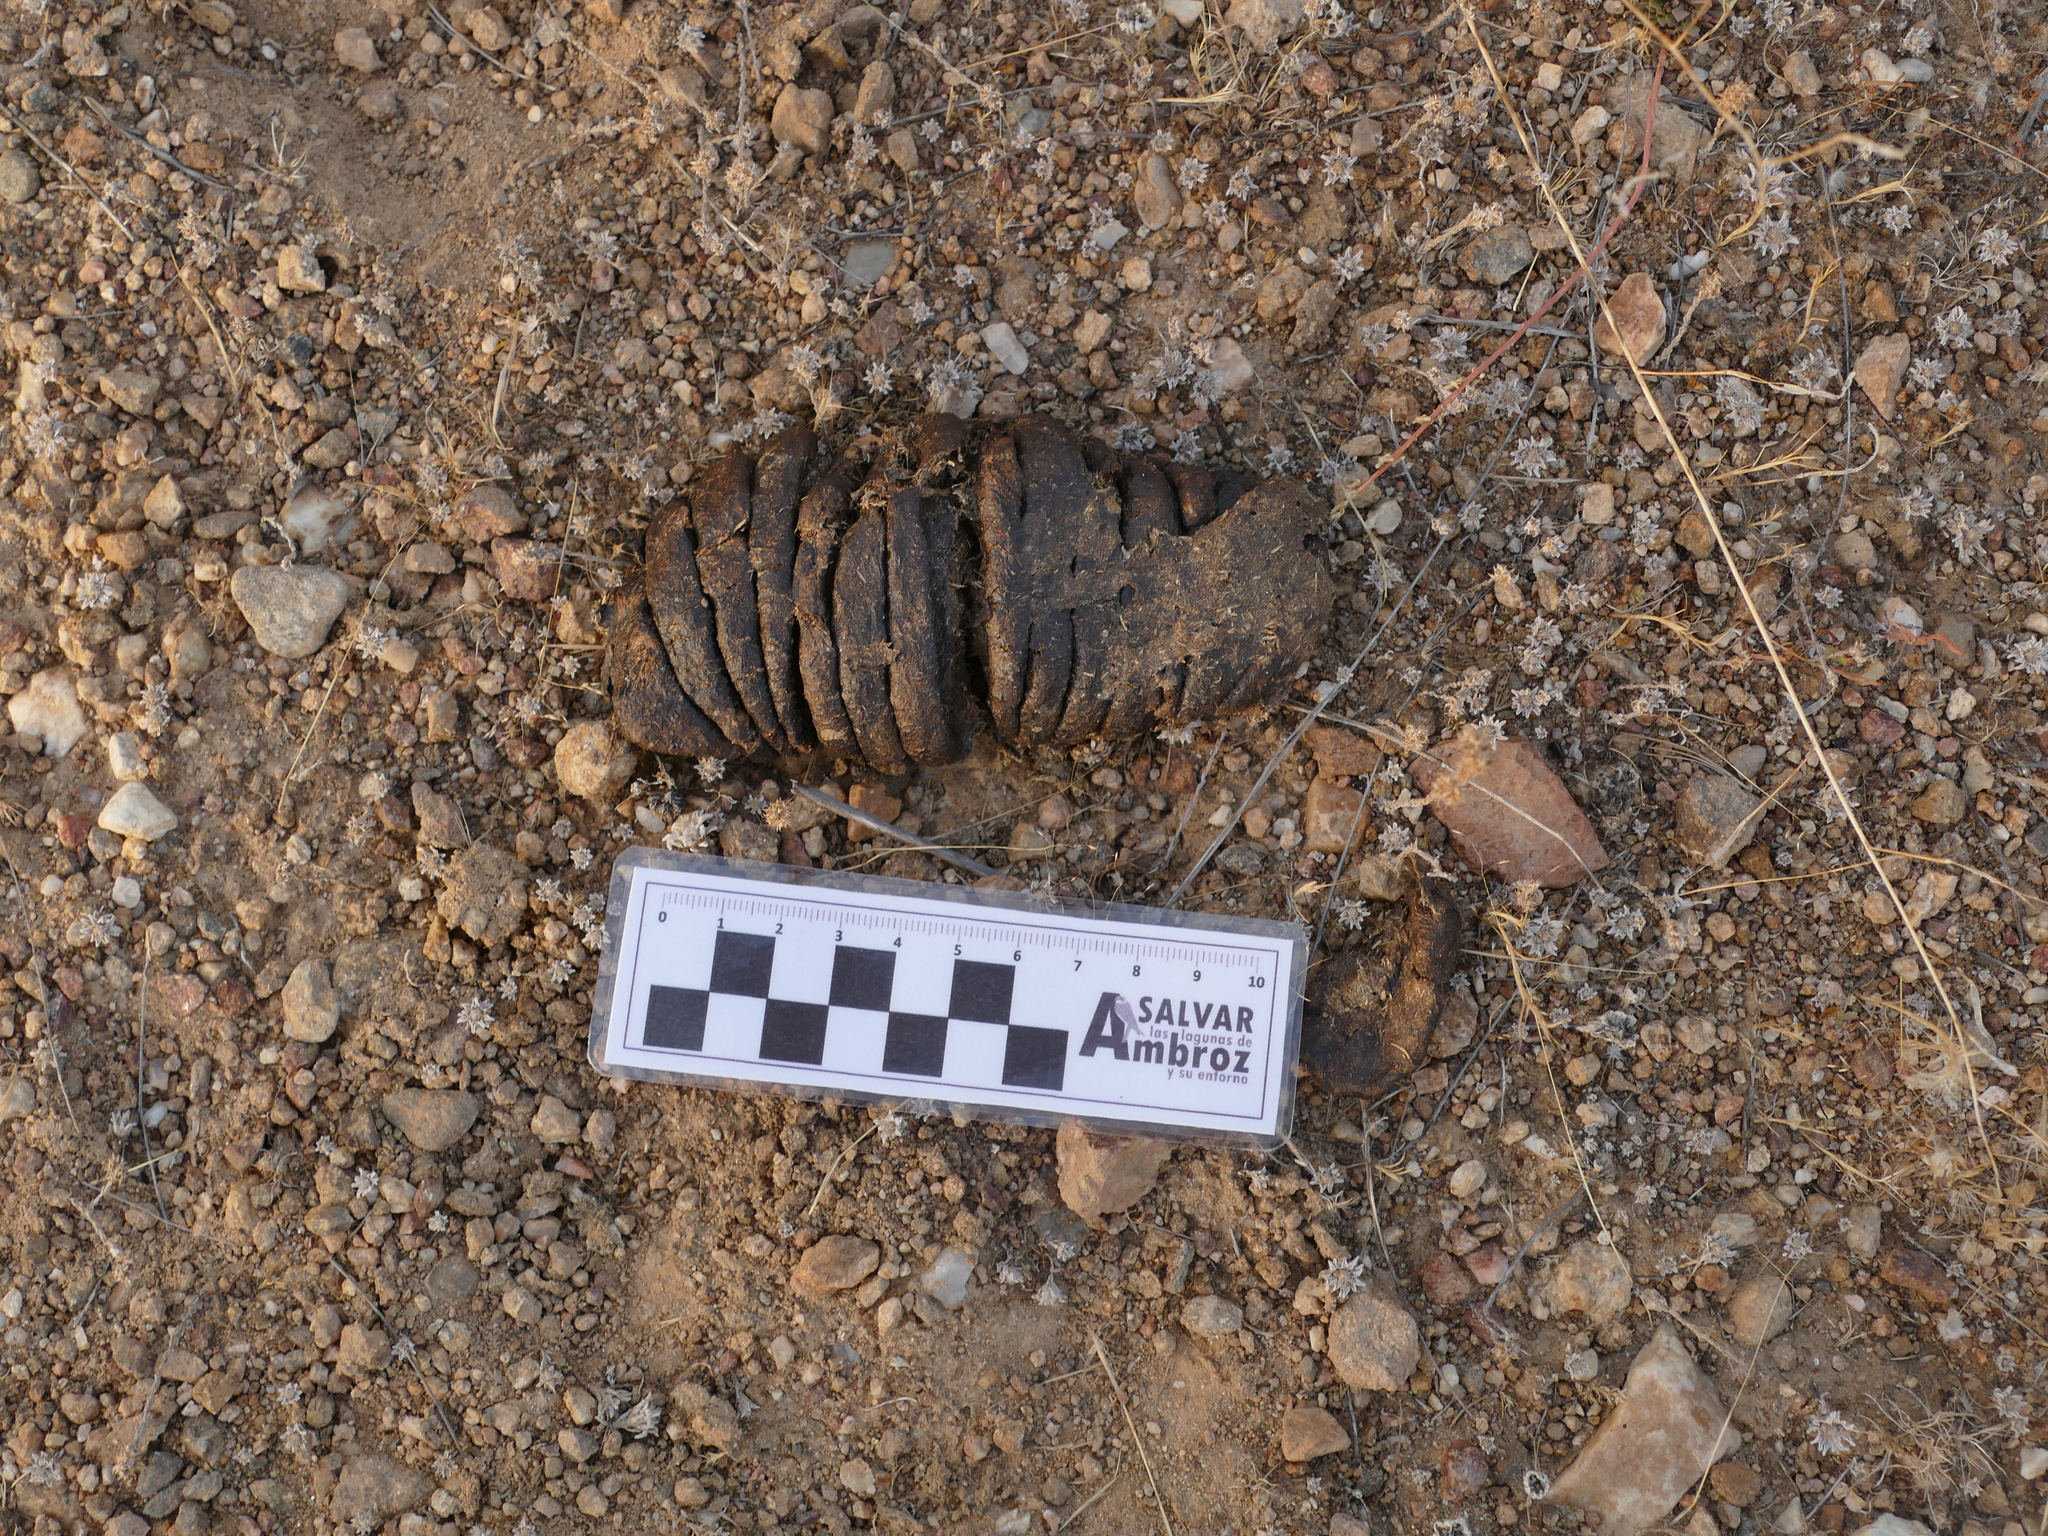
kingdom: Animalia
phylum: Chordata
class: Mammalia
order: Artiodactyla
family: Suidae
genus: Sus
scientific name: Sus scrofa
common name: Wild boar
